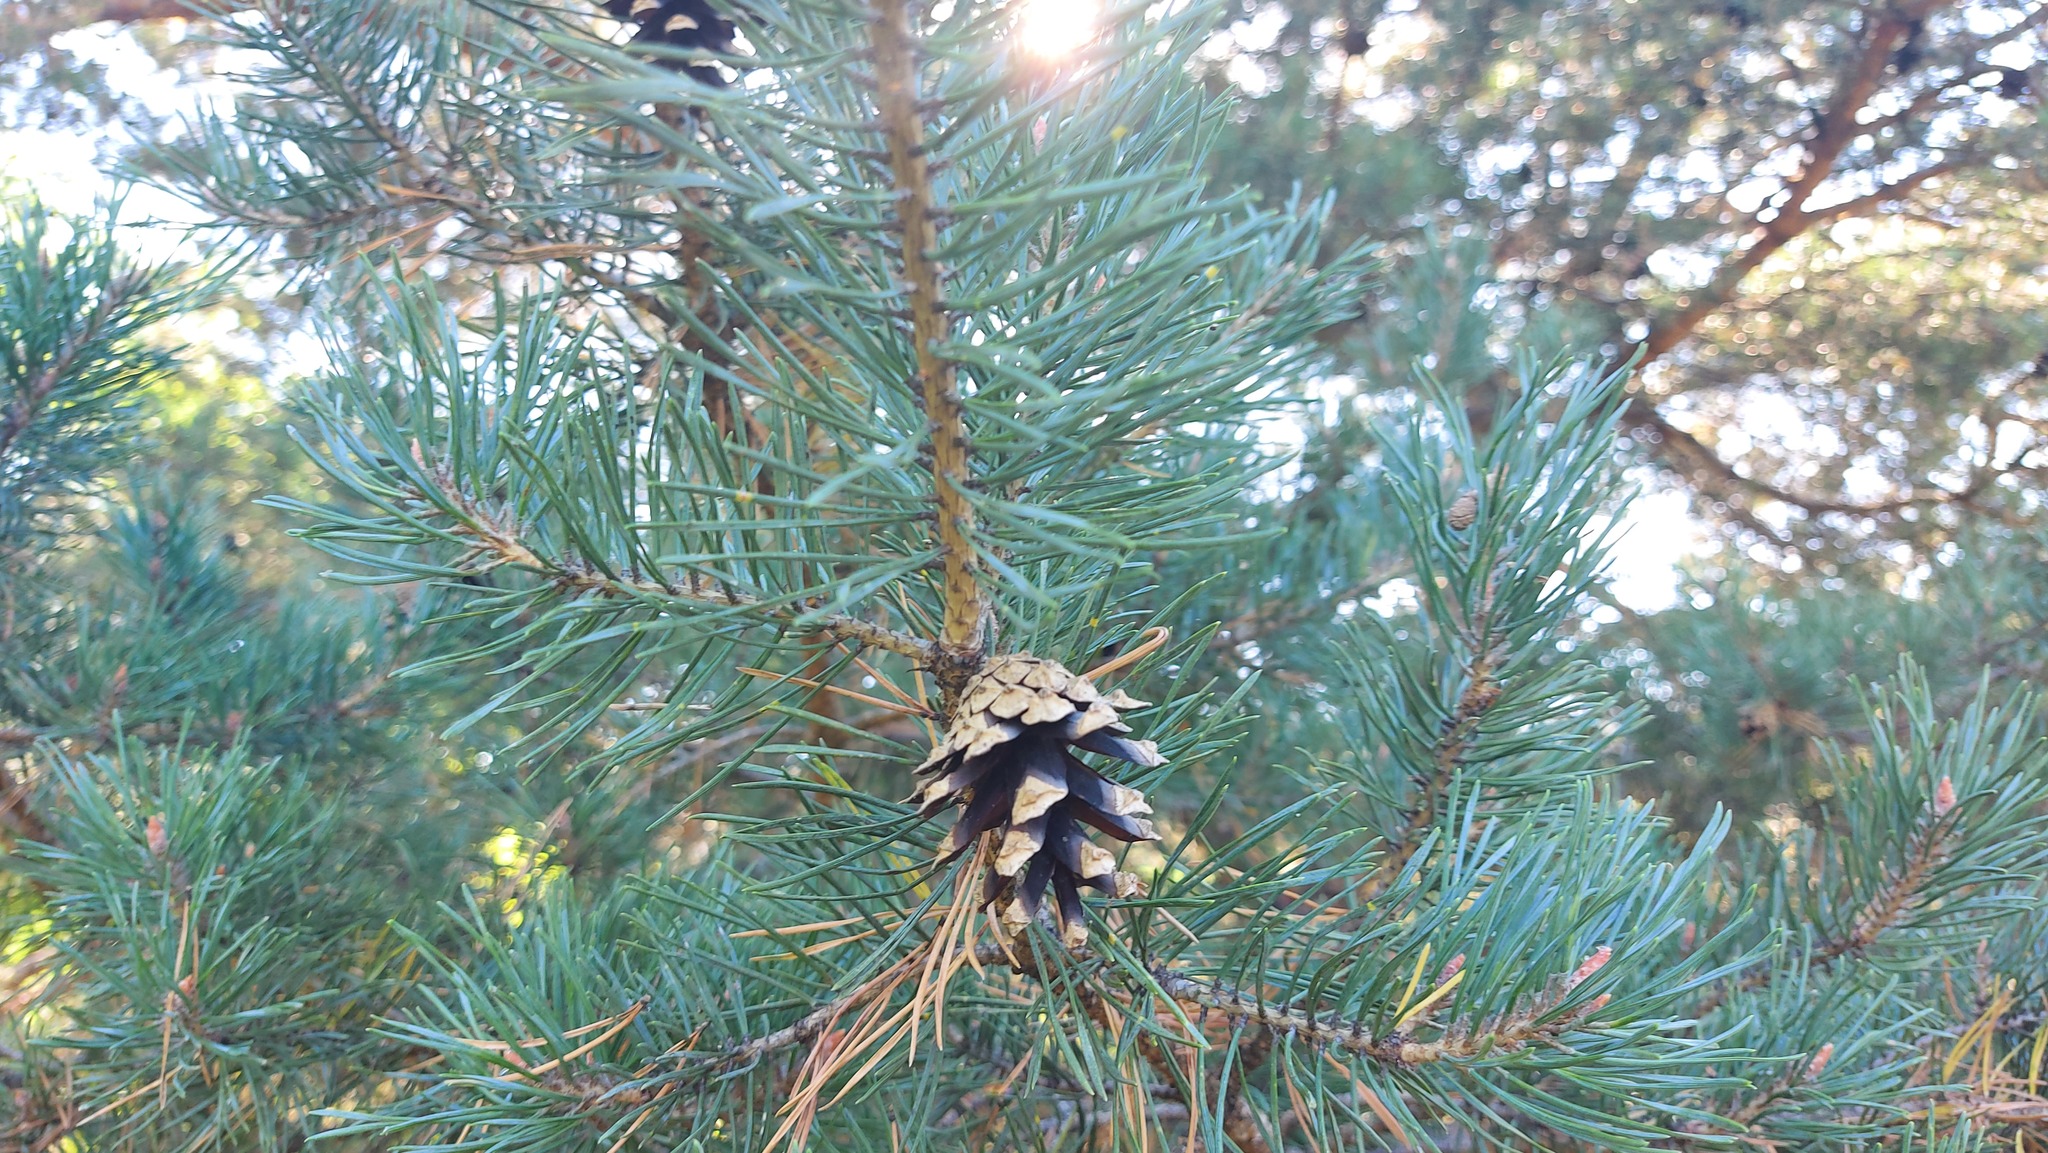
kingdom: Plantae
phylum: Tracheophyta
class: Pinopsida
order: Pinales
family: Pinaceae
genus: Pinus
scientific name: Pinus sylvestris
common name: Scots pine
